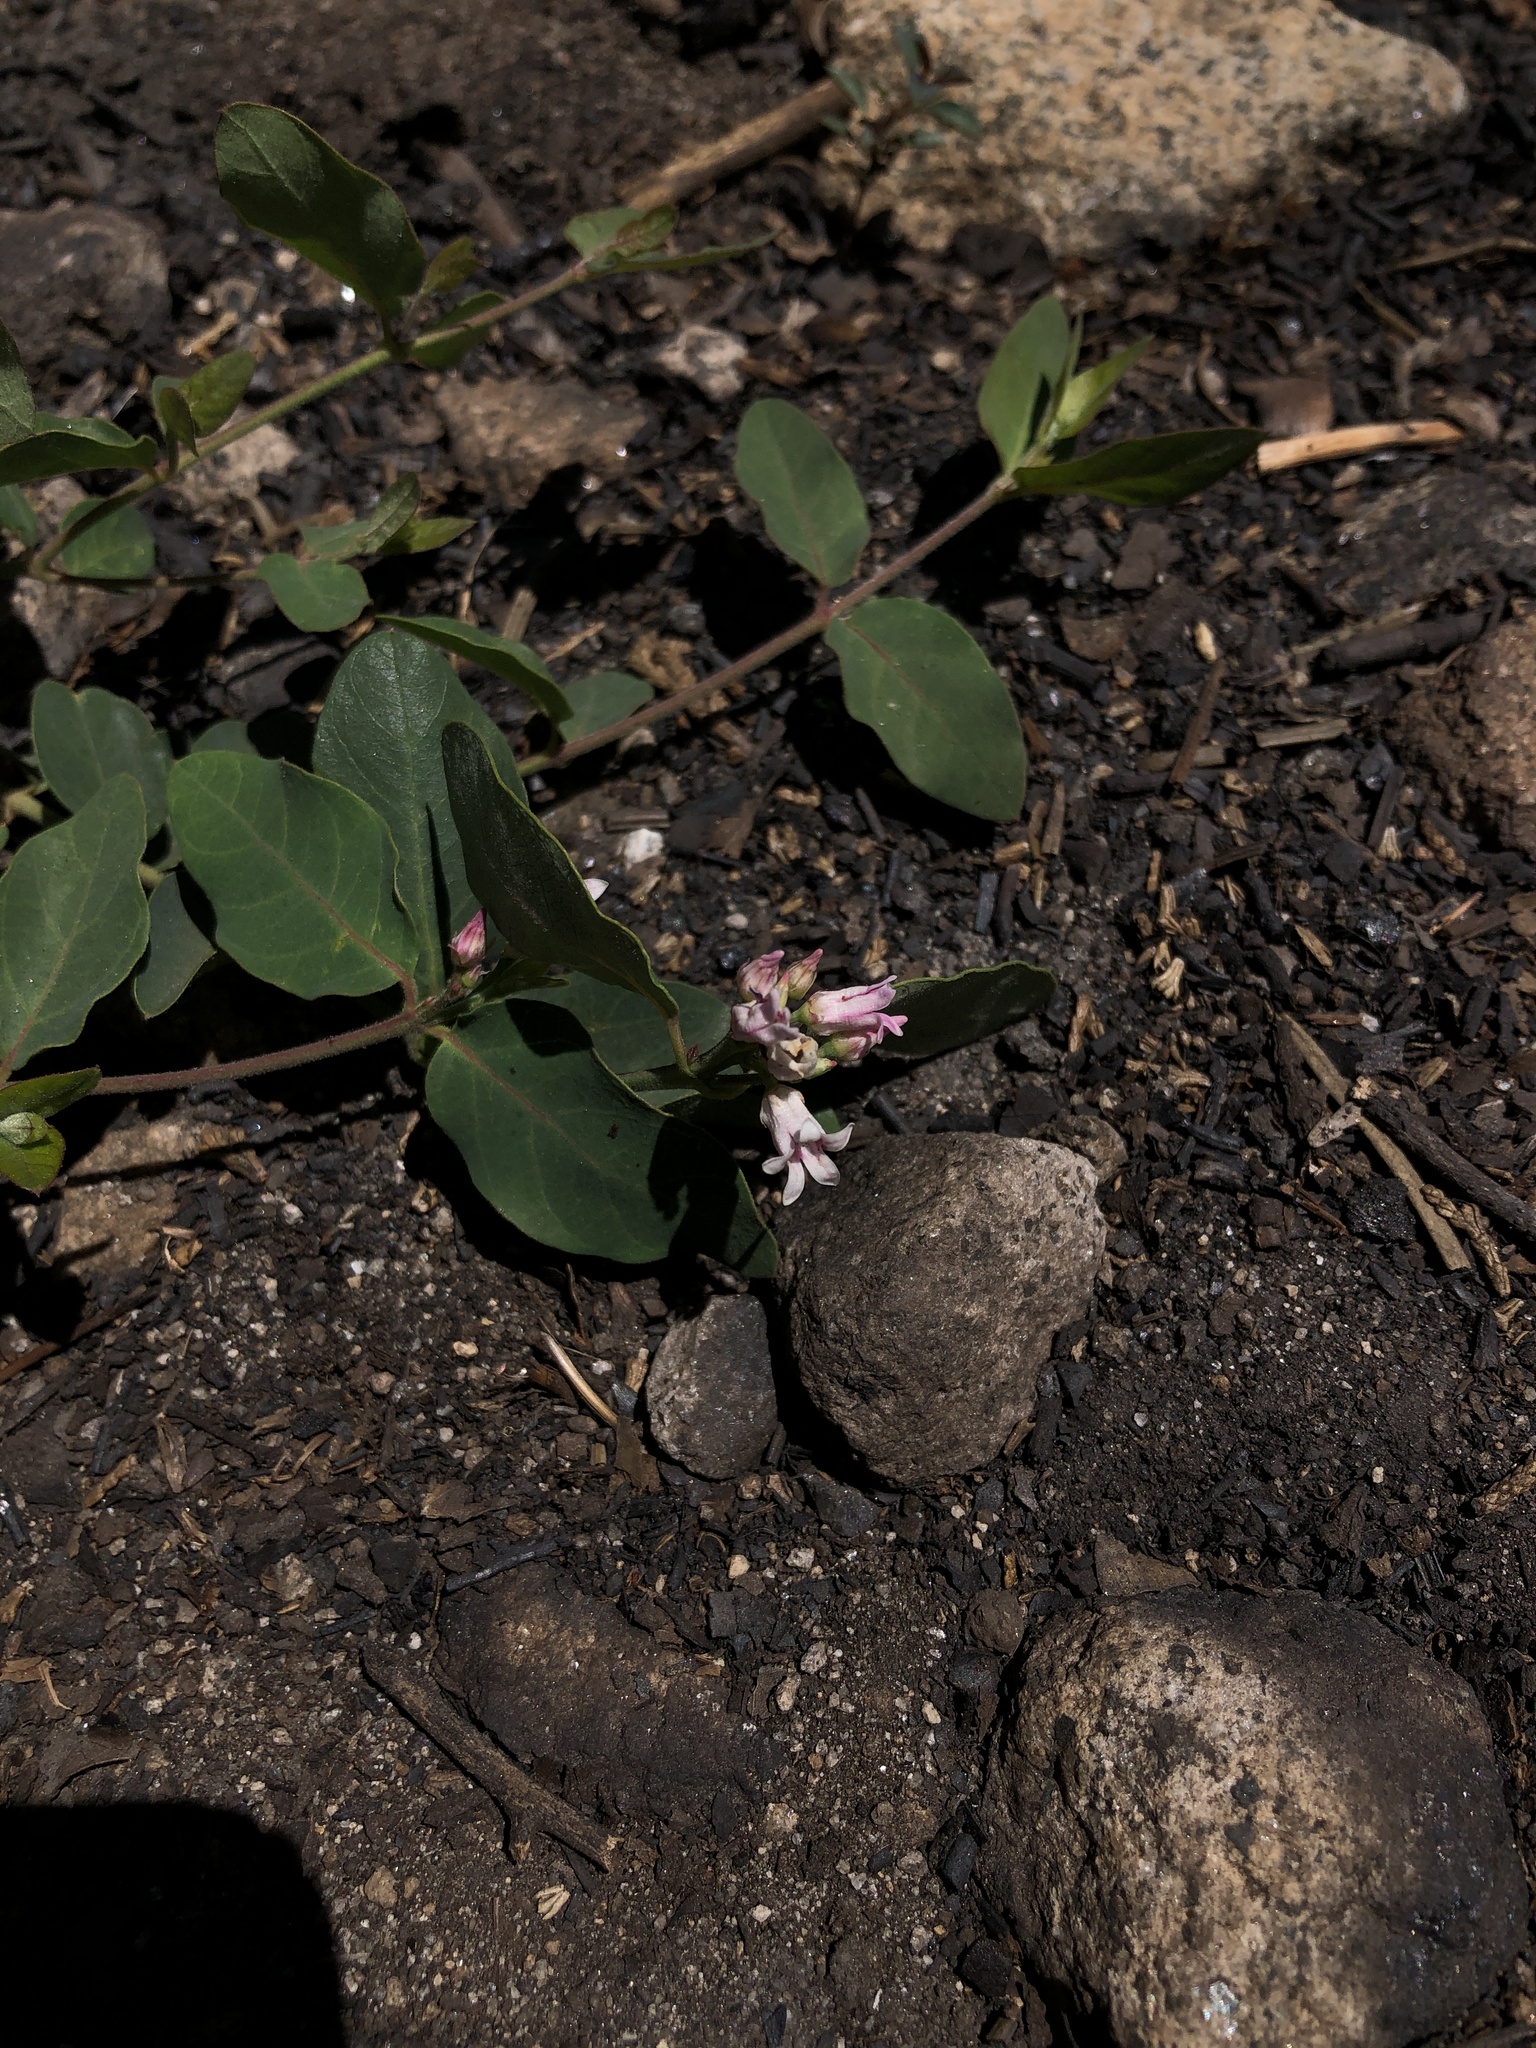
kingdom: Plantae
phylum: Tracheophyta
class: Magnoliopsida
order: Gentianales
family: Apocynaceae
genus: Apocynum
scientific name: Apocynum androsaemifolium
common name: Spreading dogbane
